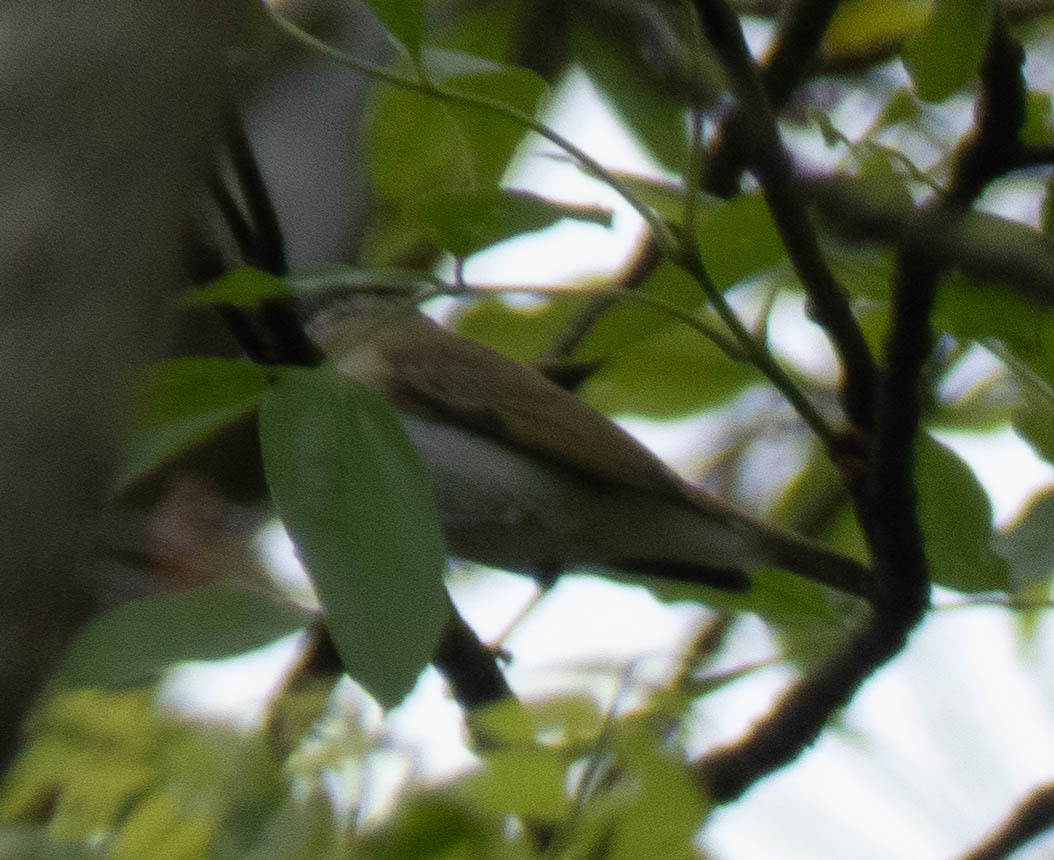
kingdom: Animalia
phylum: Chordata
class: Aves
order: Passeriformes
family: Vireonidae
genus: Vireo
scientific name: Vireo olivaceus
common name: Red-eyed vireo
